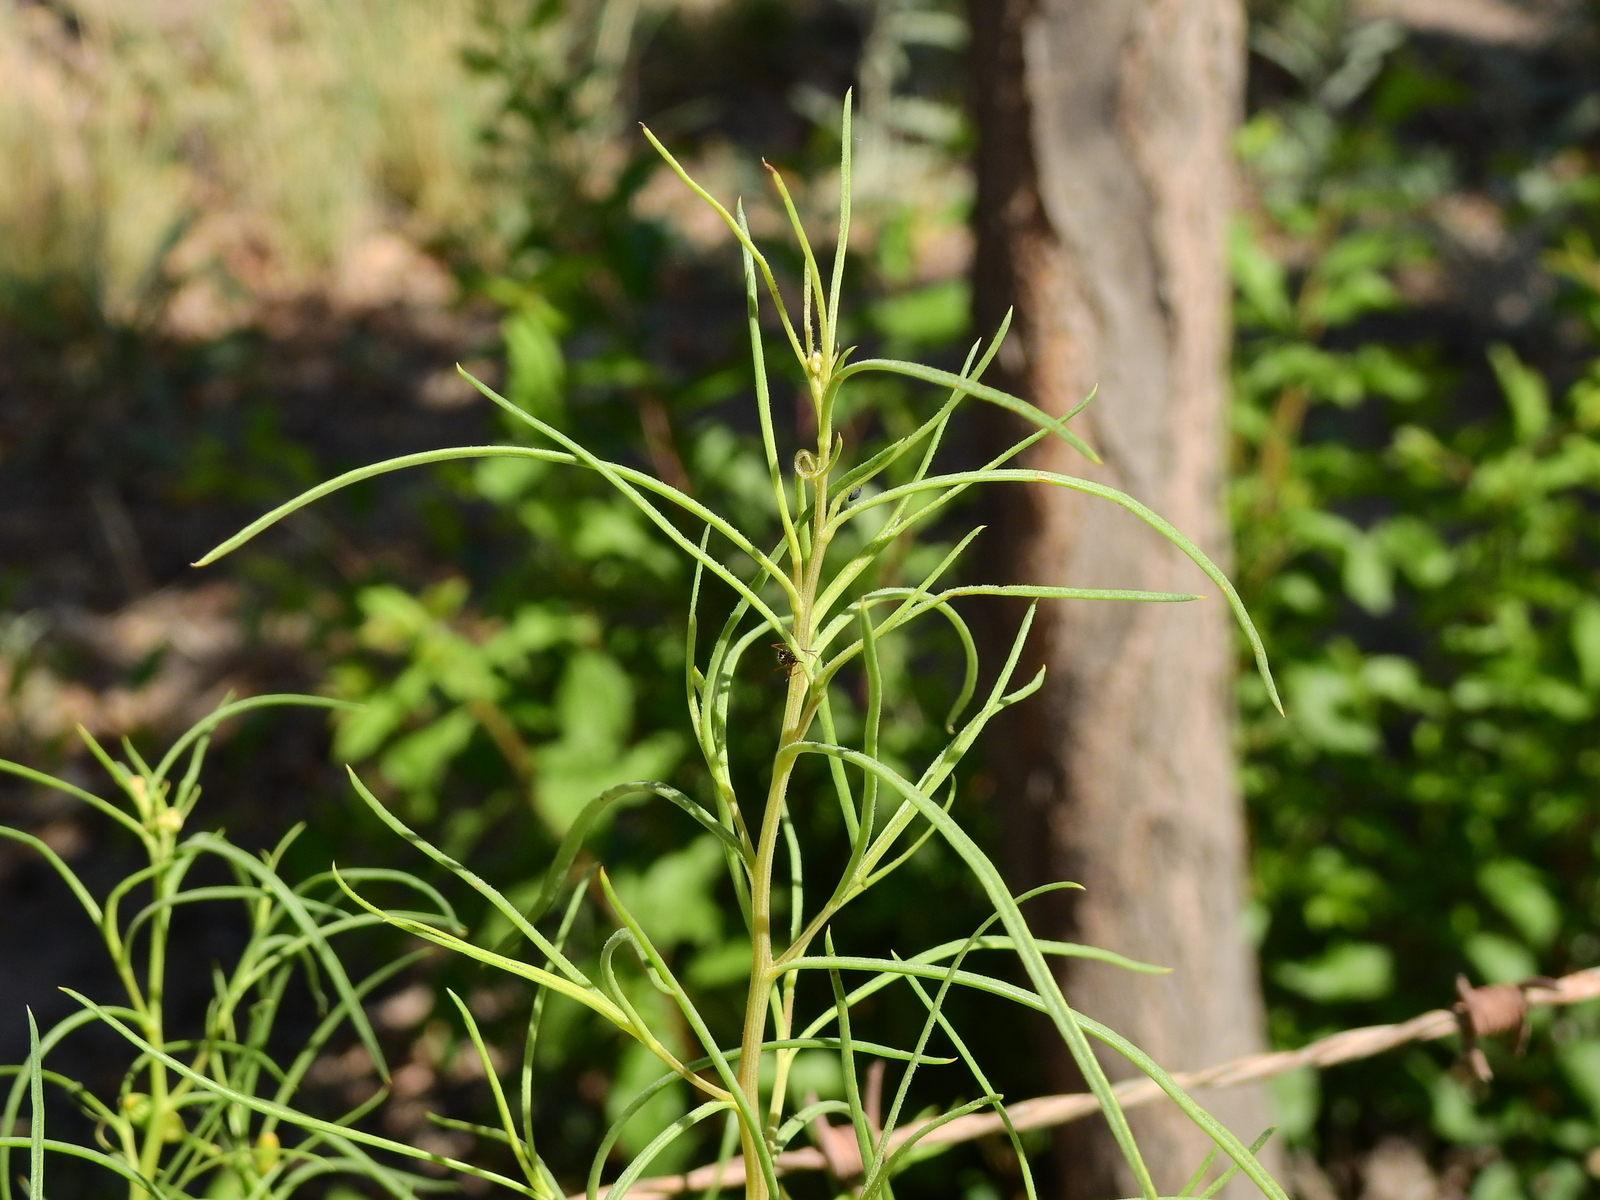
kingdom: Plantae
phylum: Tracheophyta
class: Magnoliopsida
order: Asterales
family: Asteraceae
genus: Senecio
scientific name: Senecio subulatus
